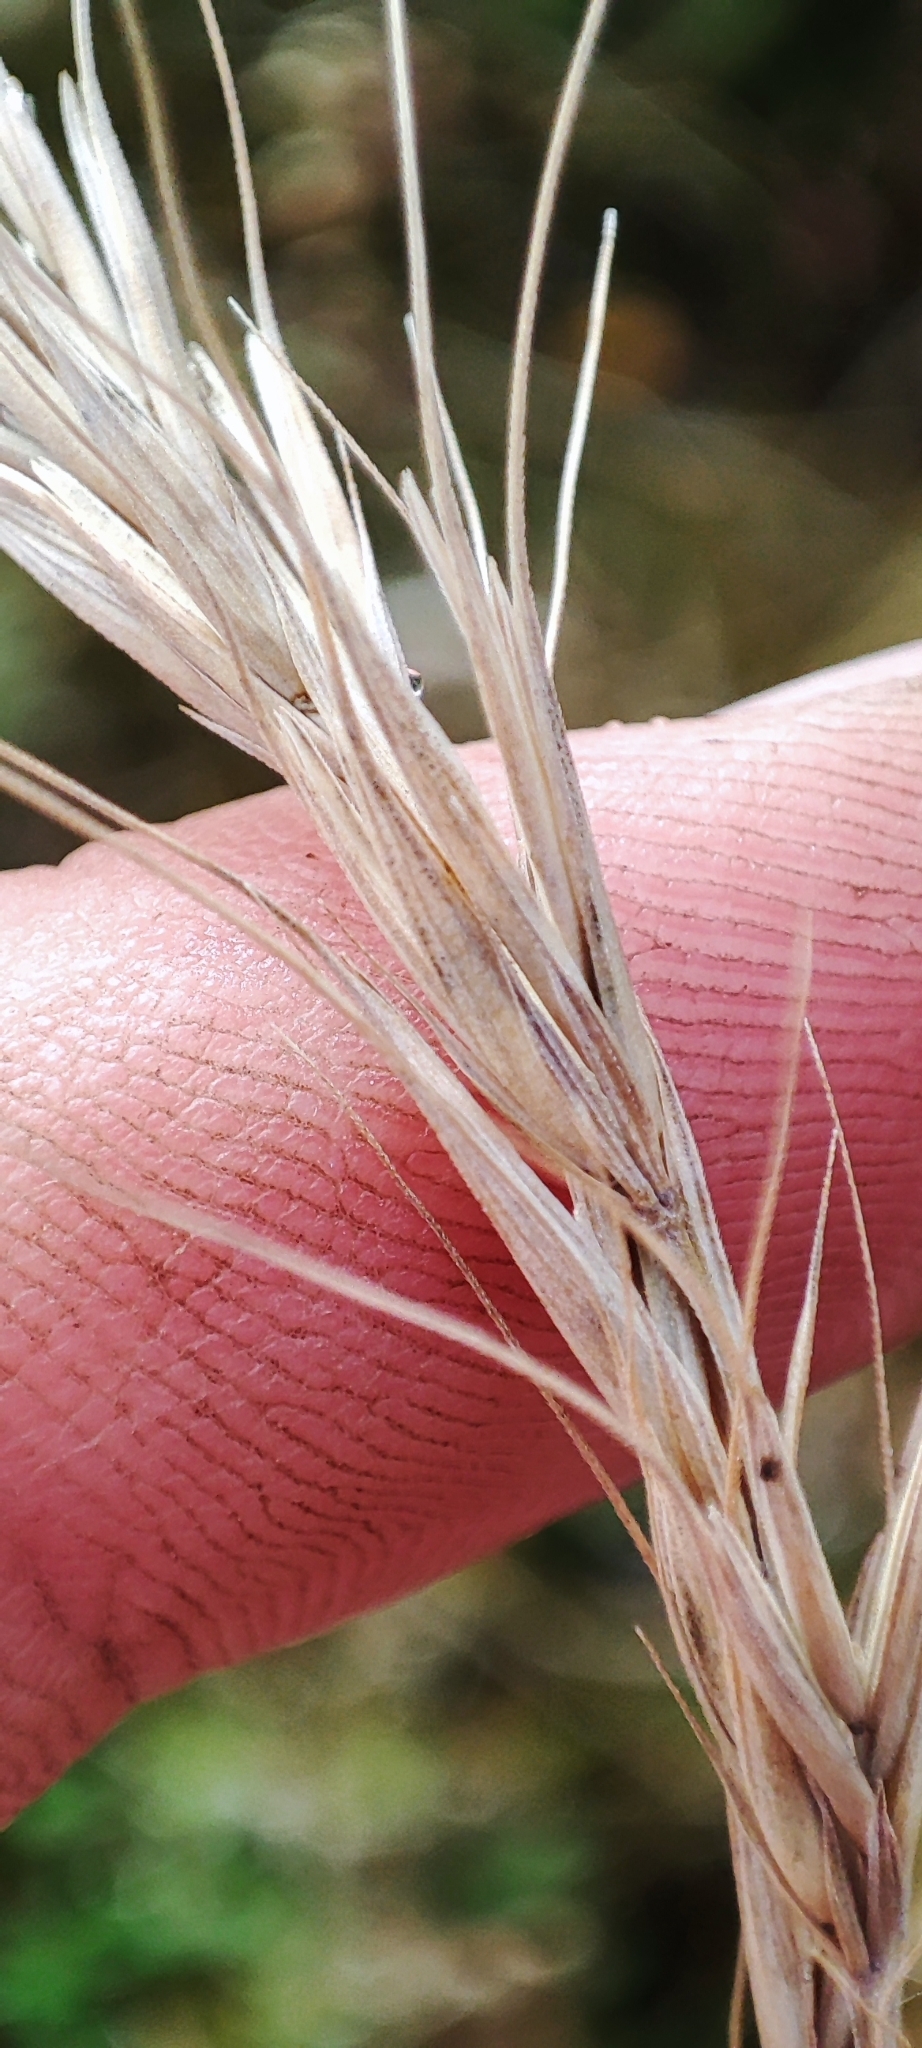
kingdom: Plantae
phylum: Tracheophyta
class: Liliopsida
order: Poales
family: Poaceae
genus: Elymus
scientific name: Elymus sibiricus
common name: Siberian wildrye
